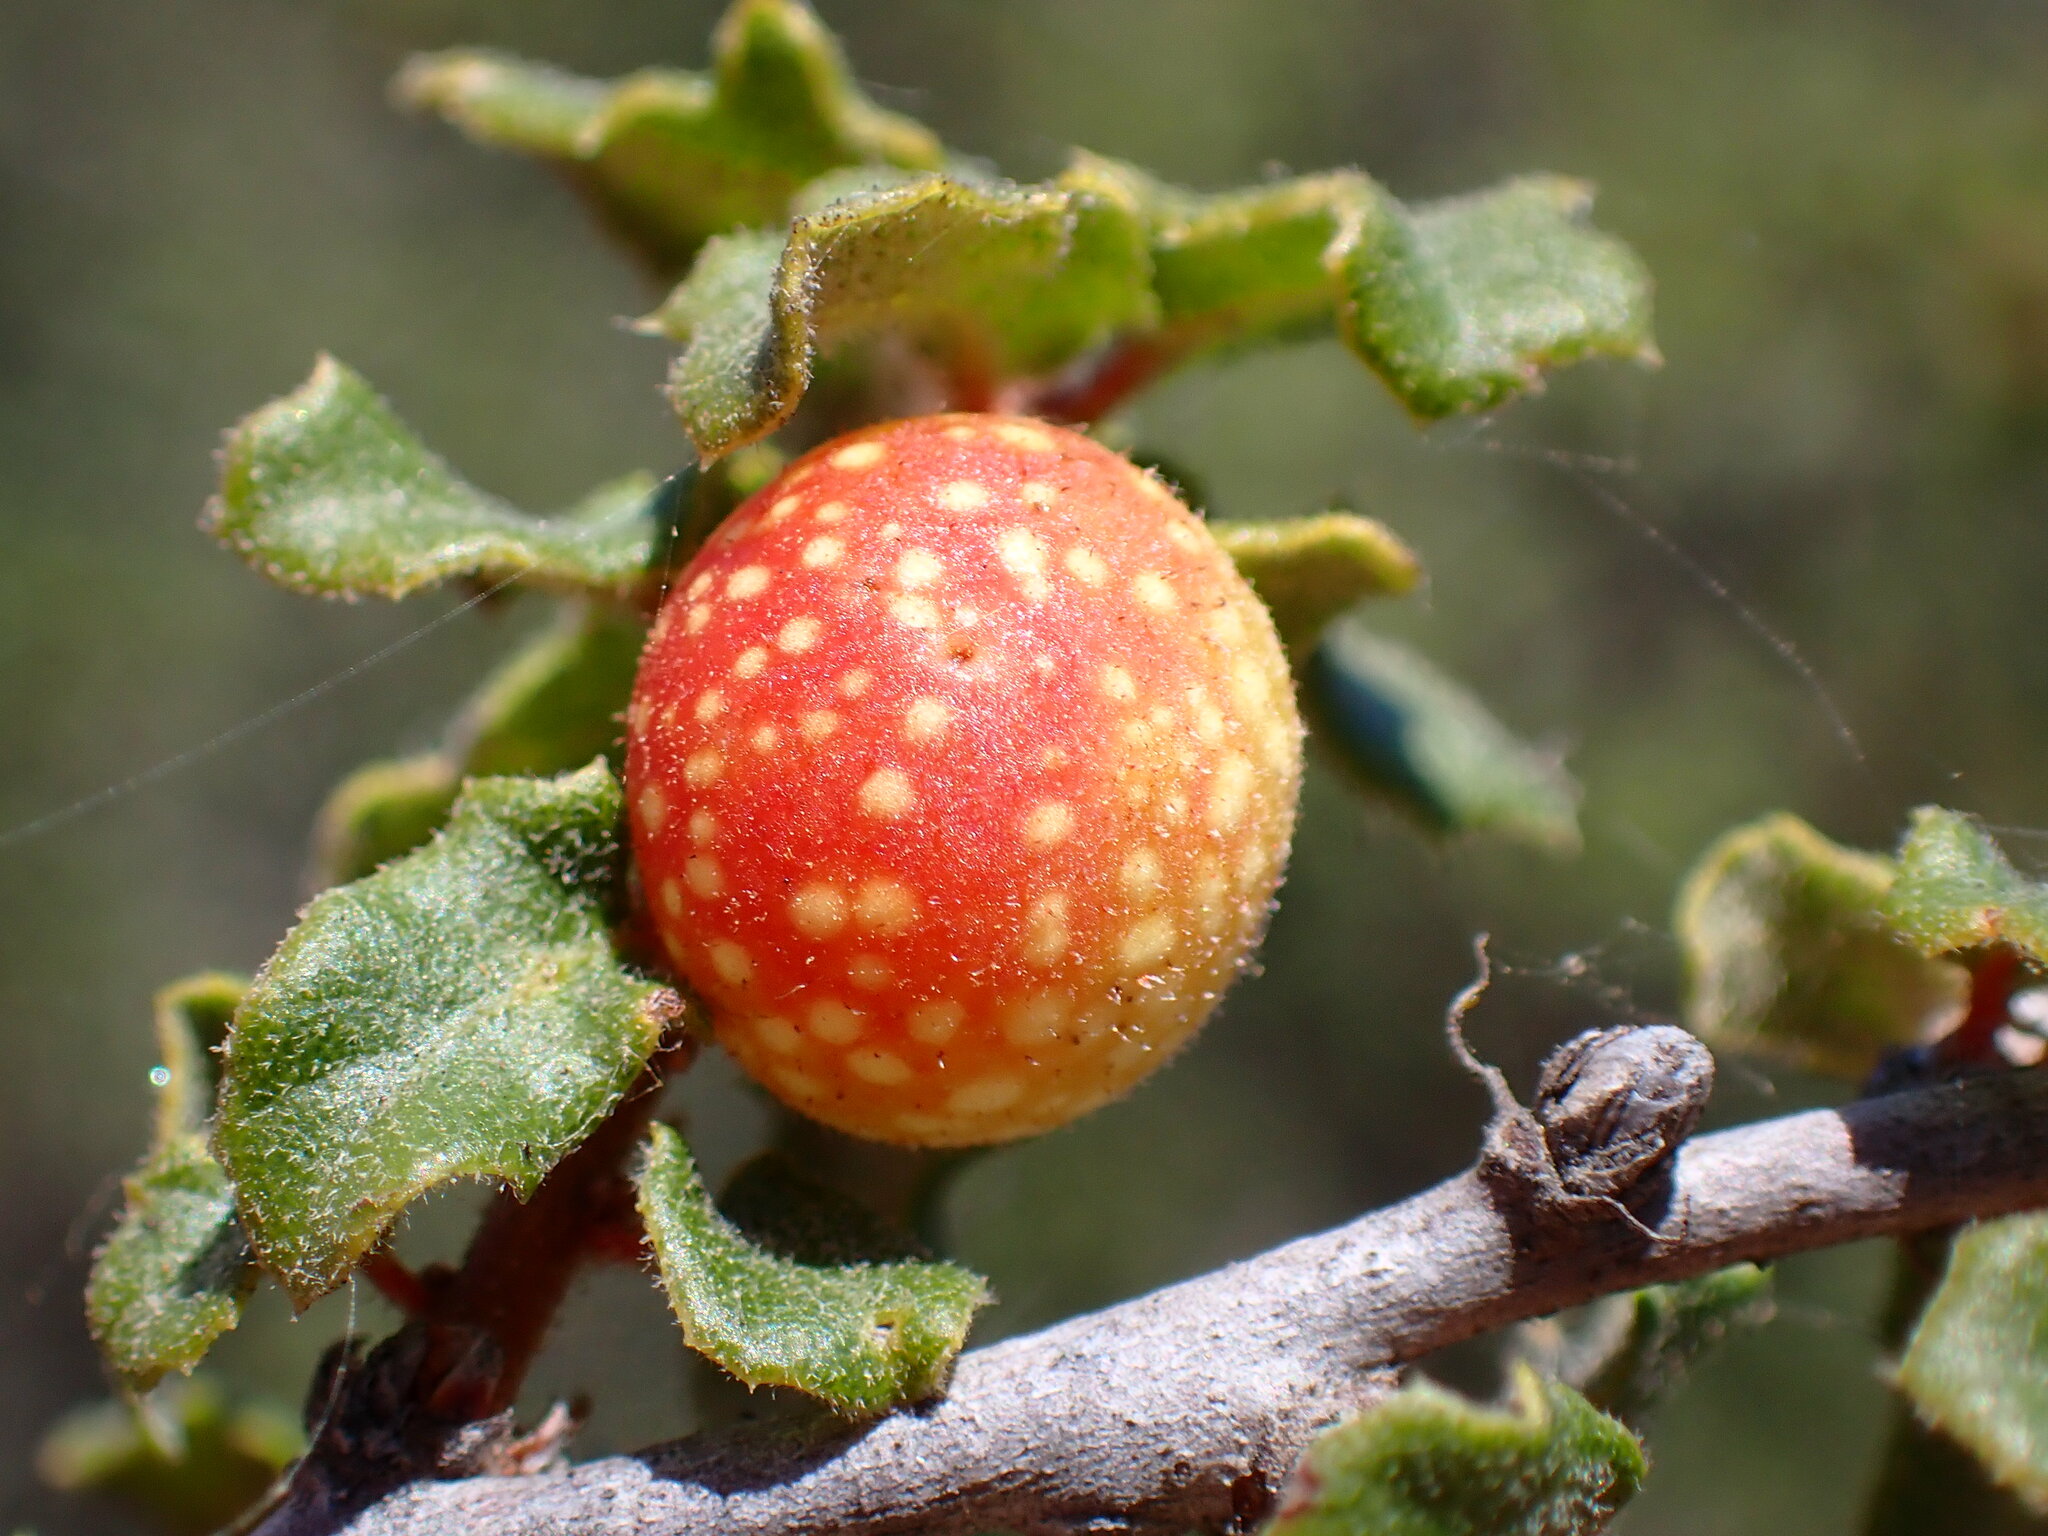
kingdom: Animalia
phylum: Arthropoda
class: Insecta
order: Hymenoptera
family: Cynipidae
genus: Burnettweldia
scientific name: Burnettweldia
